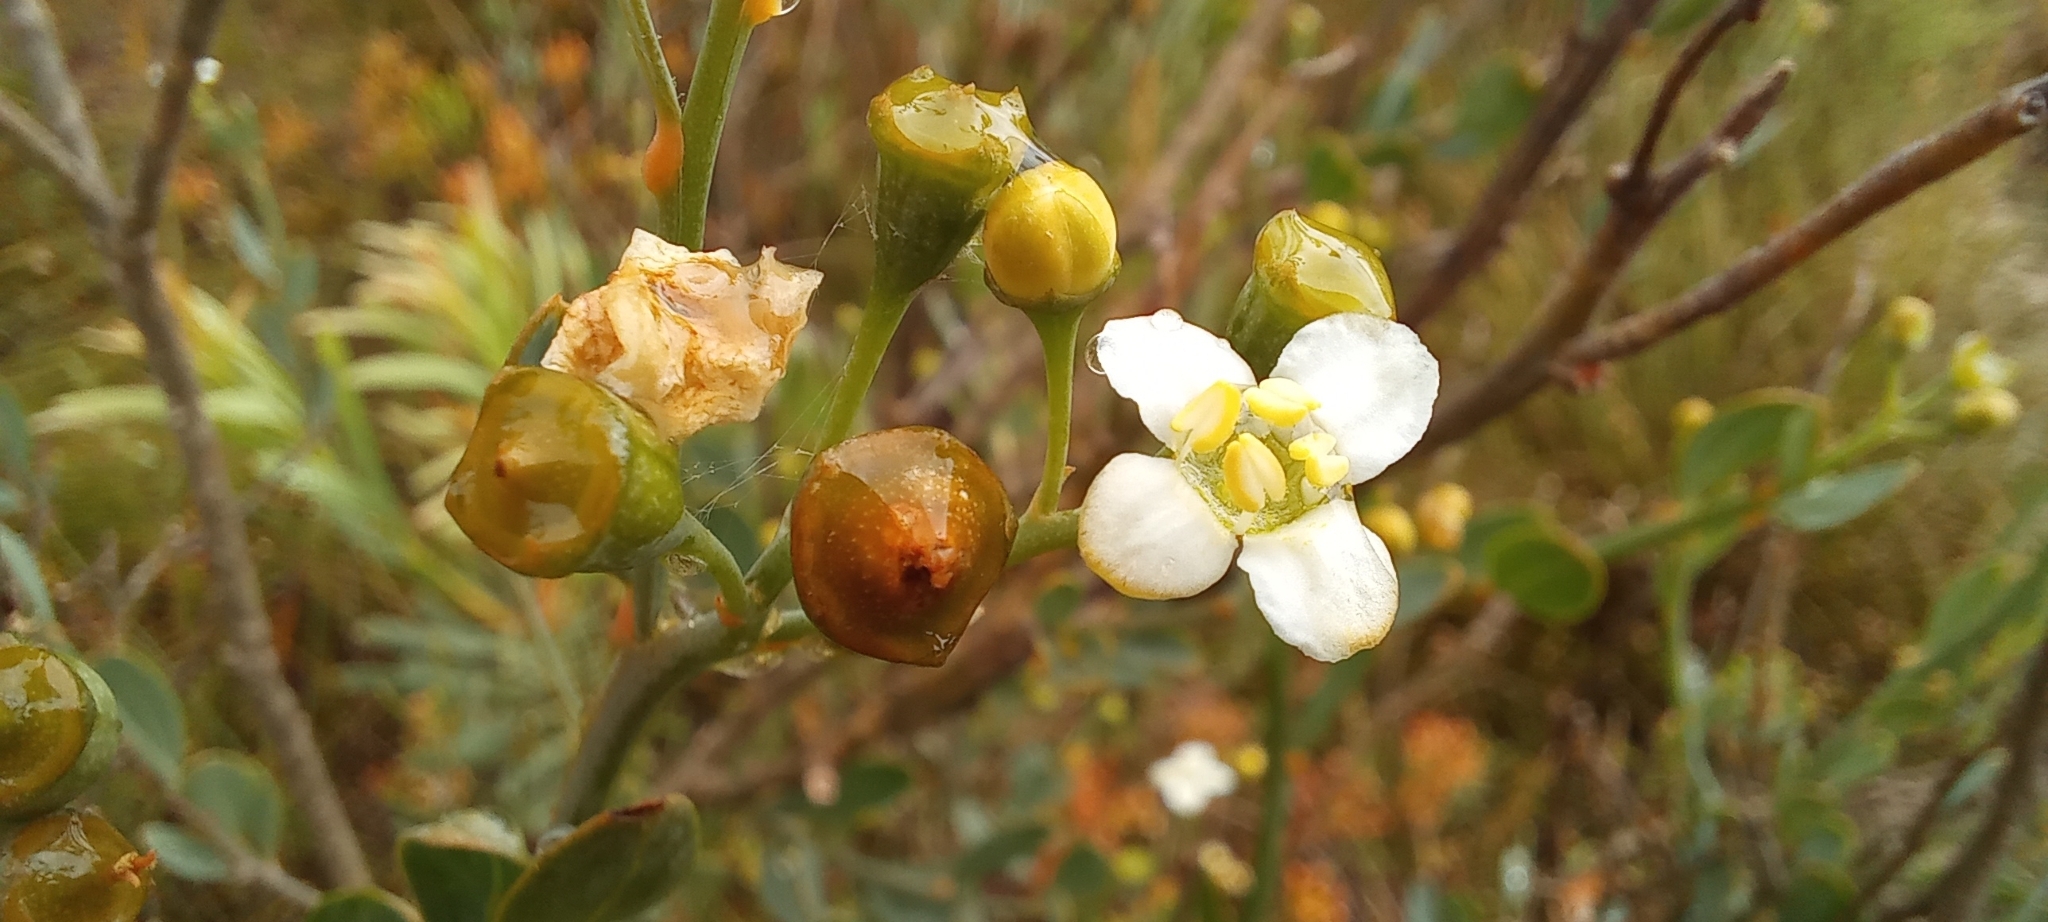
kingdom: Plantae
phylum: Tracheophyta
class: Magnoliopsida
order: Solanales
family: Montiniaceae
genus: Montinia
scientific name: Montinia caryophyllacea
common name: Wild clove-bush
